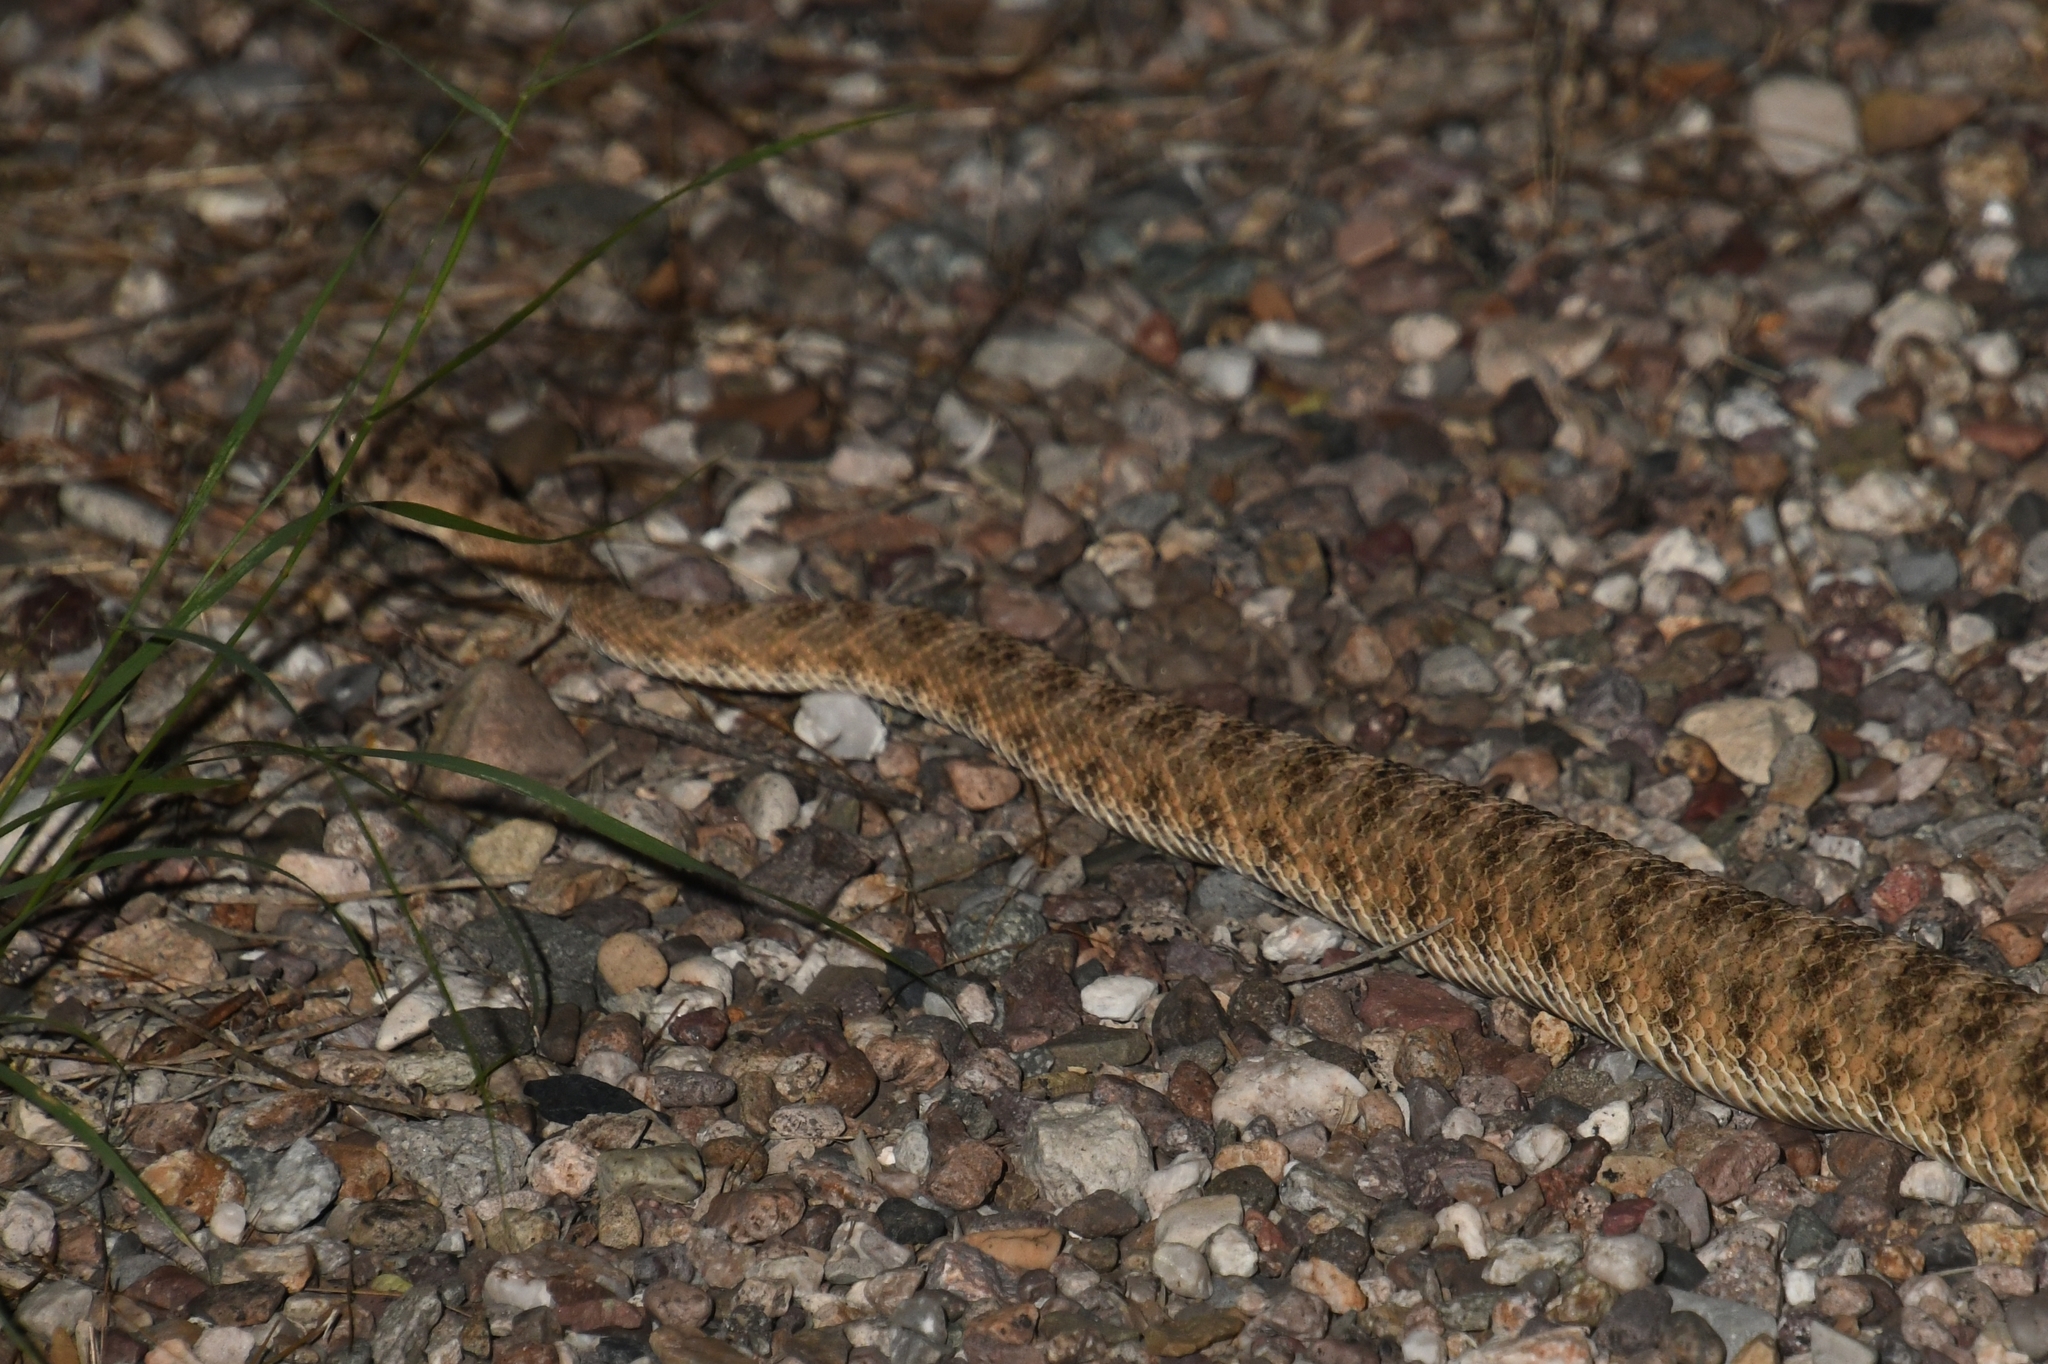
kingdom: Animalia
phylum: Chordata
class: Squamata
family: Viperidae
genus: Crotalus
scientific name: Crotalus tigris
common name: Tiger rattlesnake
